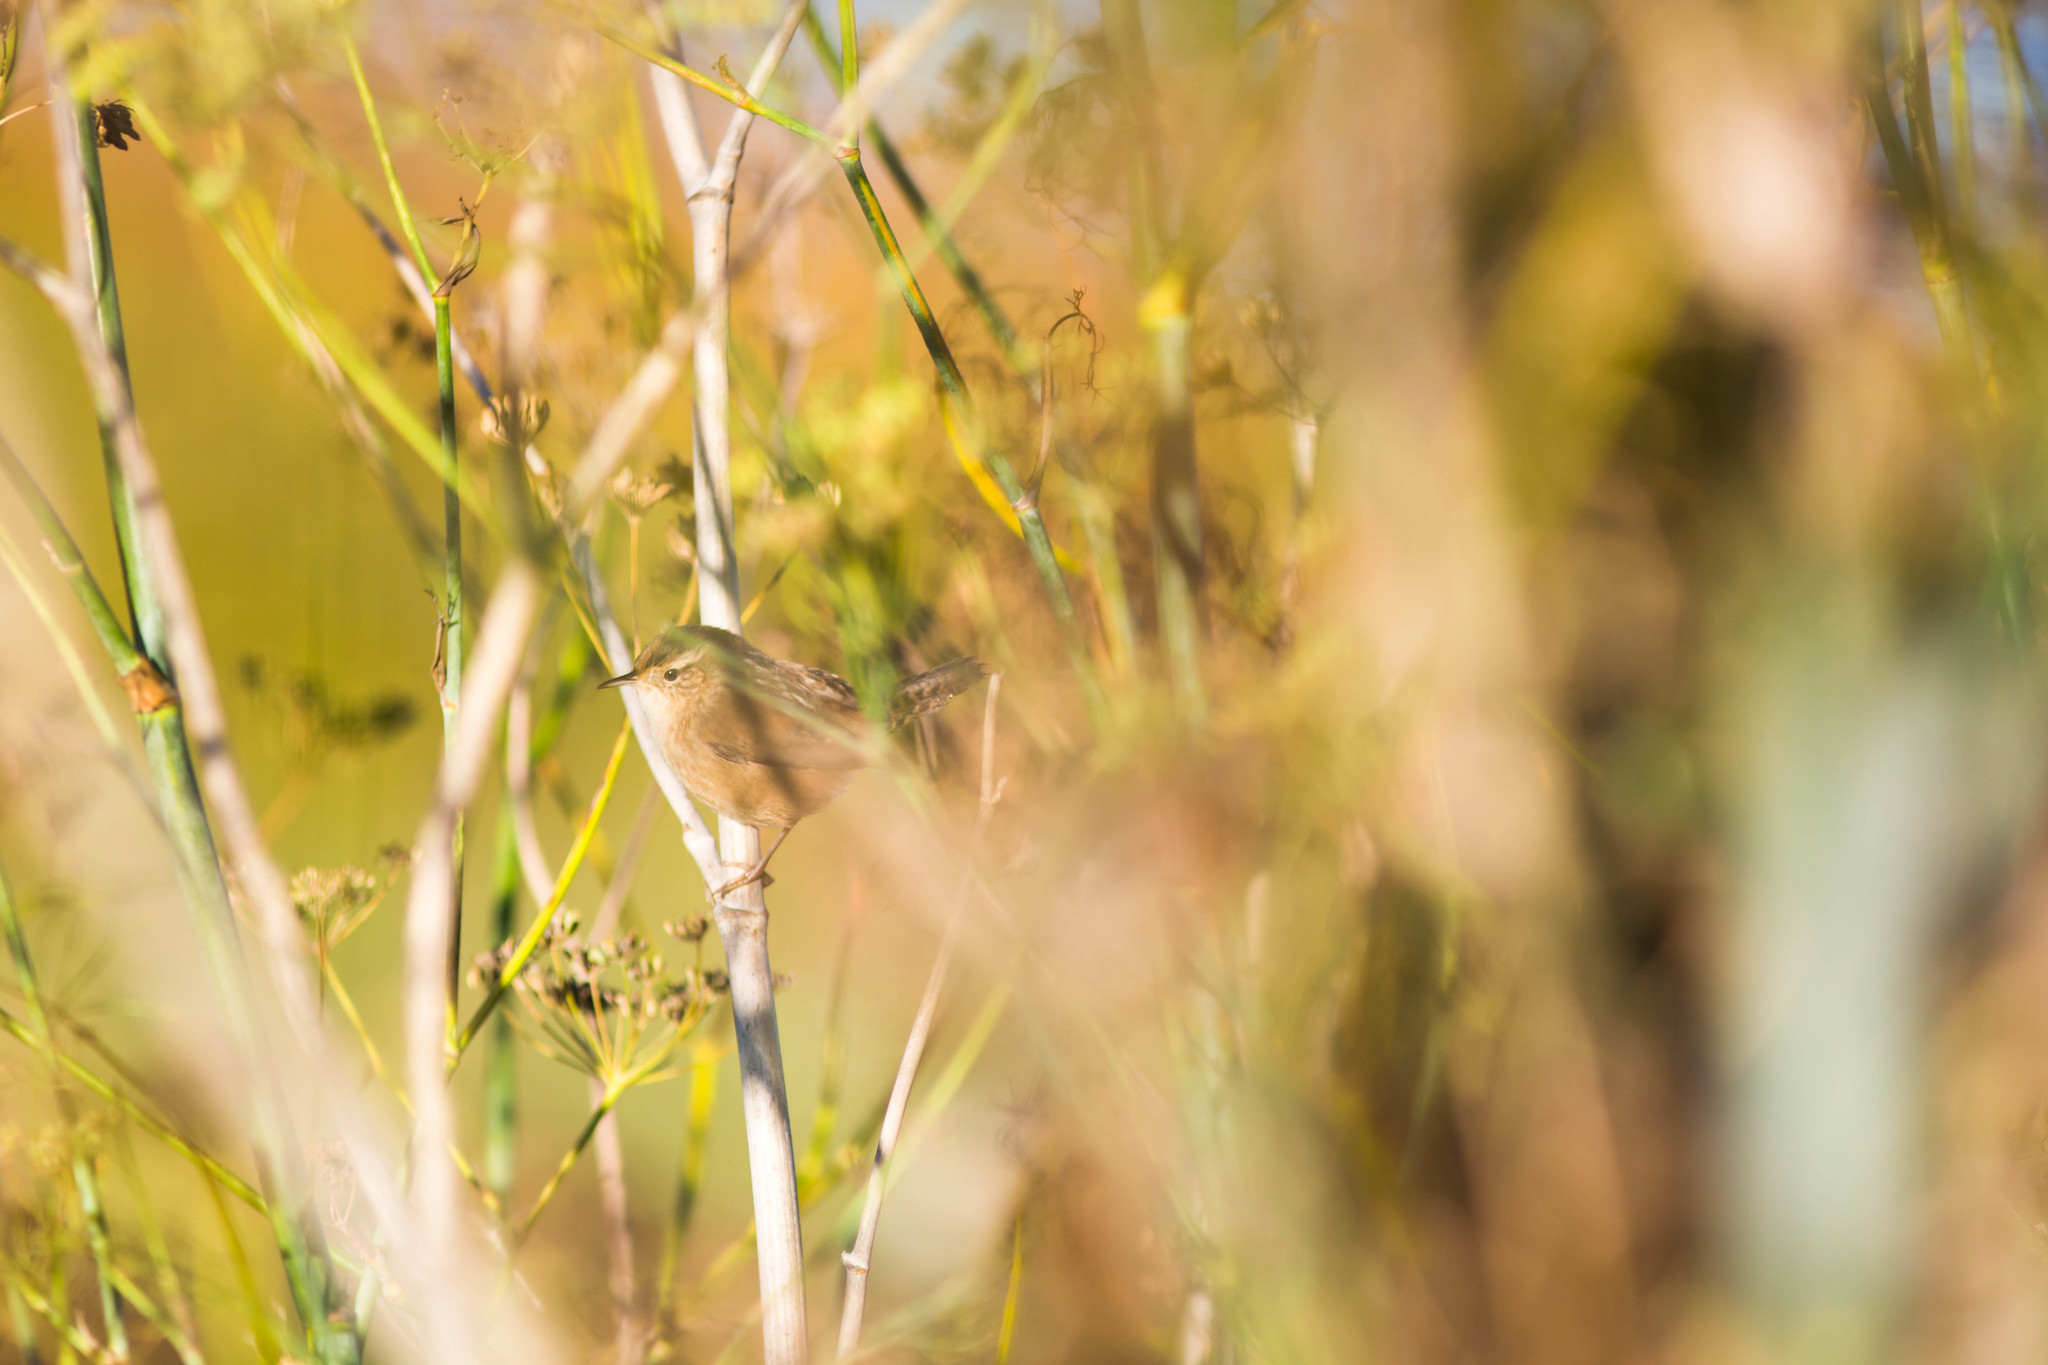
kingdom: Animalia
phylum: Chordata
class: Aves
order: Passeriformes
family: Troglodytidae
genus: Cistothorus
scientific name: Cistothorus palustris
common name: Marsh wren
